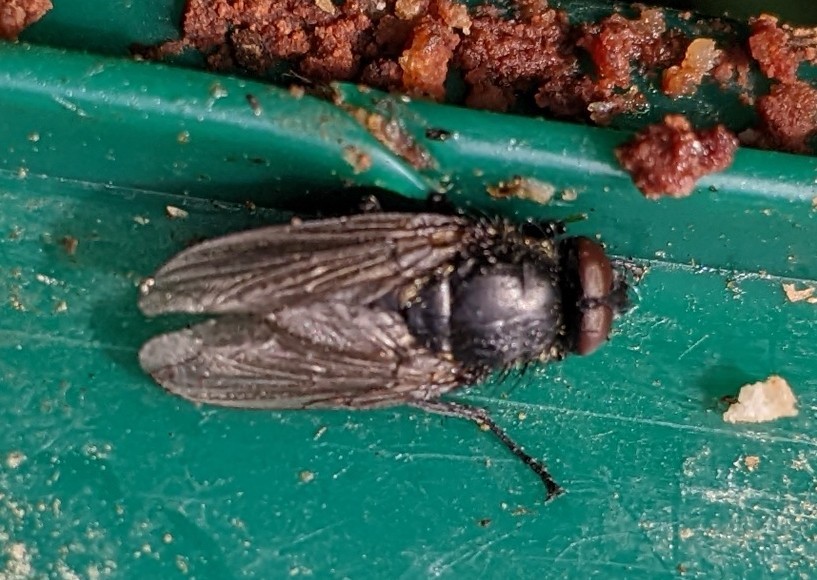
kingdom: Animalia
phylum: Arthropoda
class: Insecta
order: Diptera
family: Polleniidae
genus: Pollenia
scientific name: Pollenia
